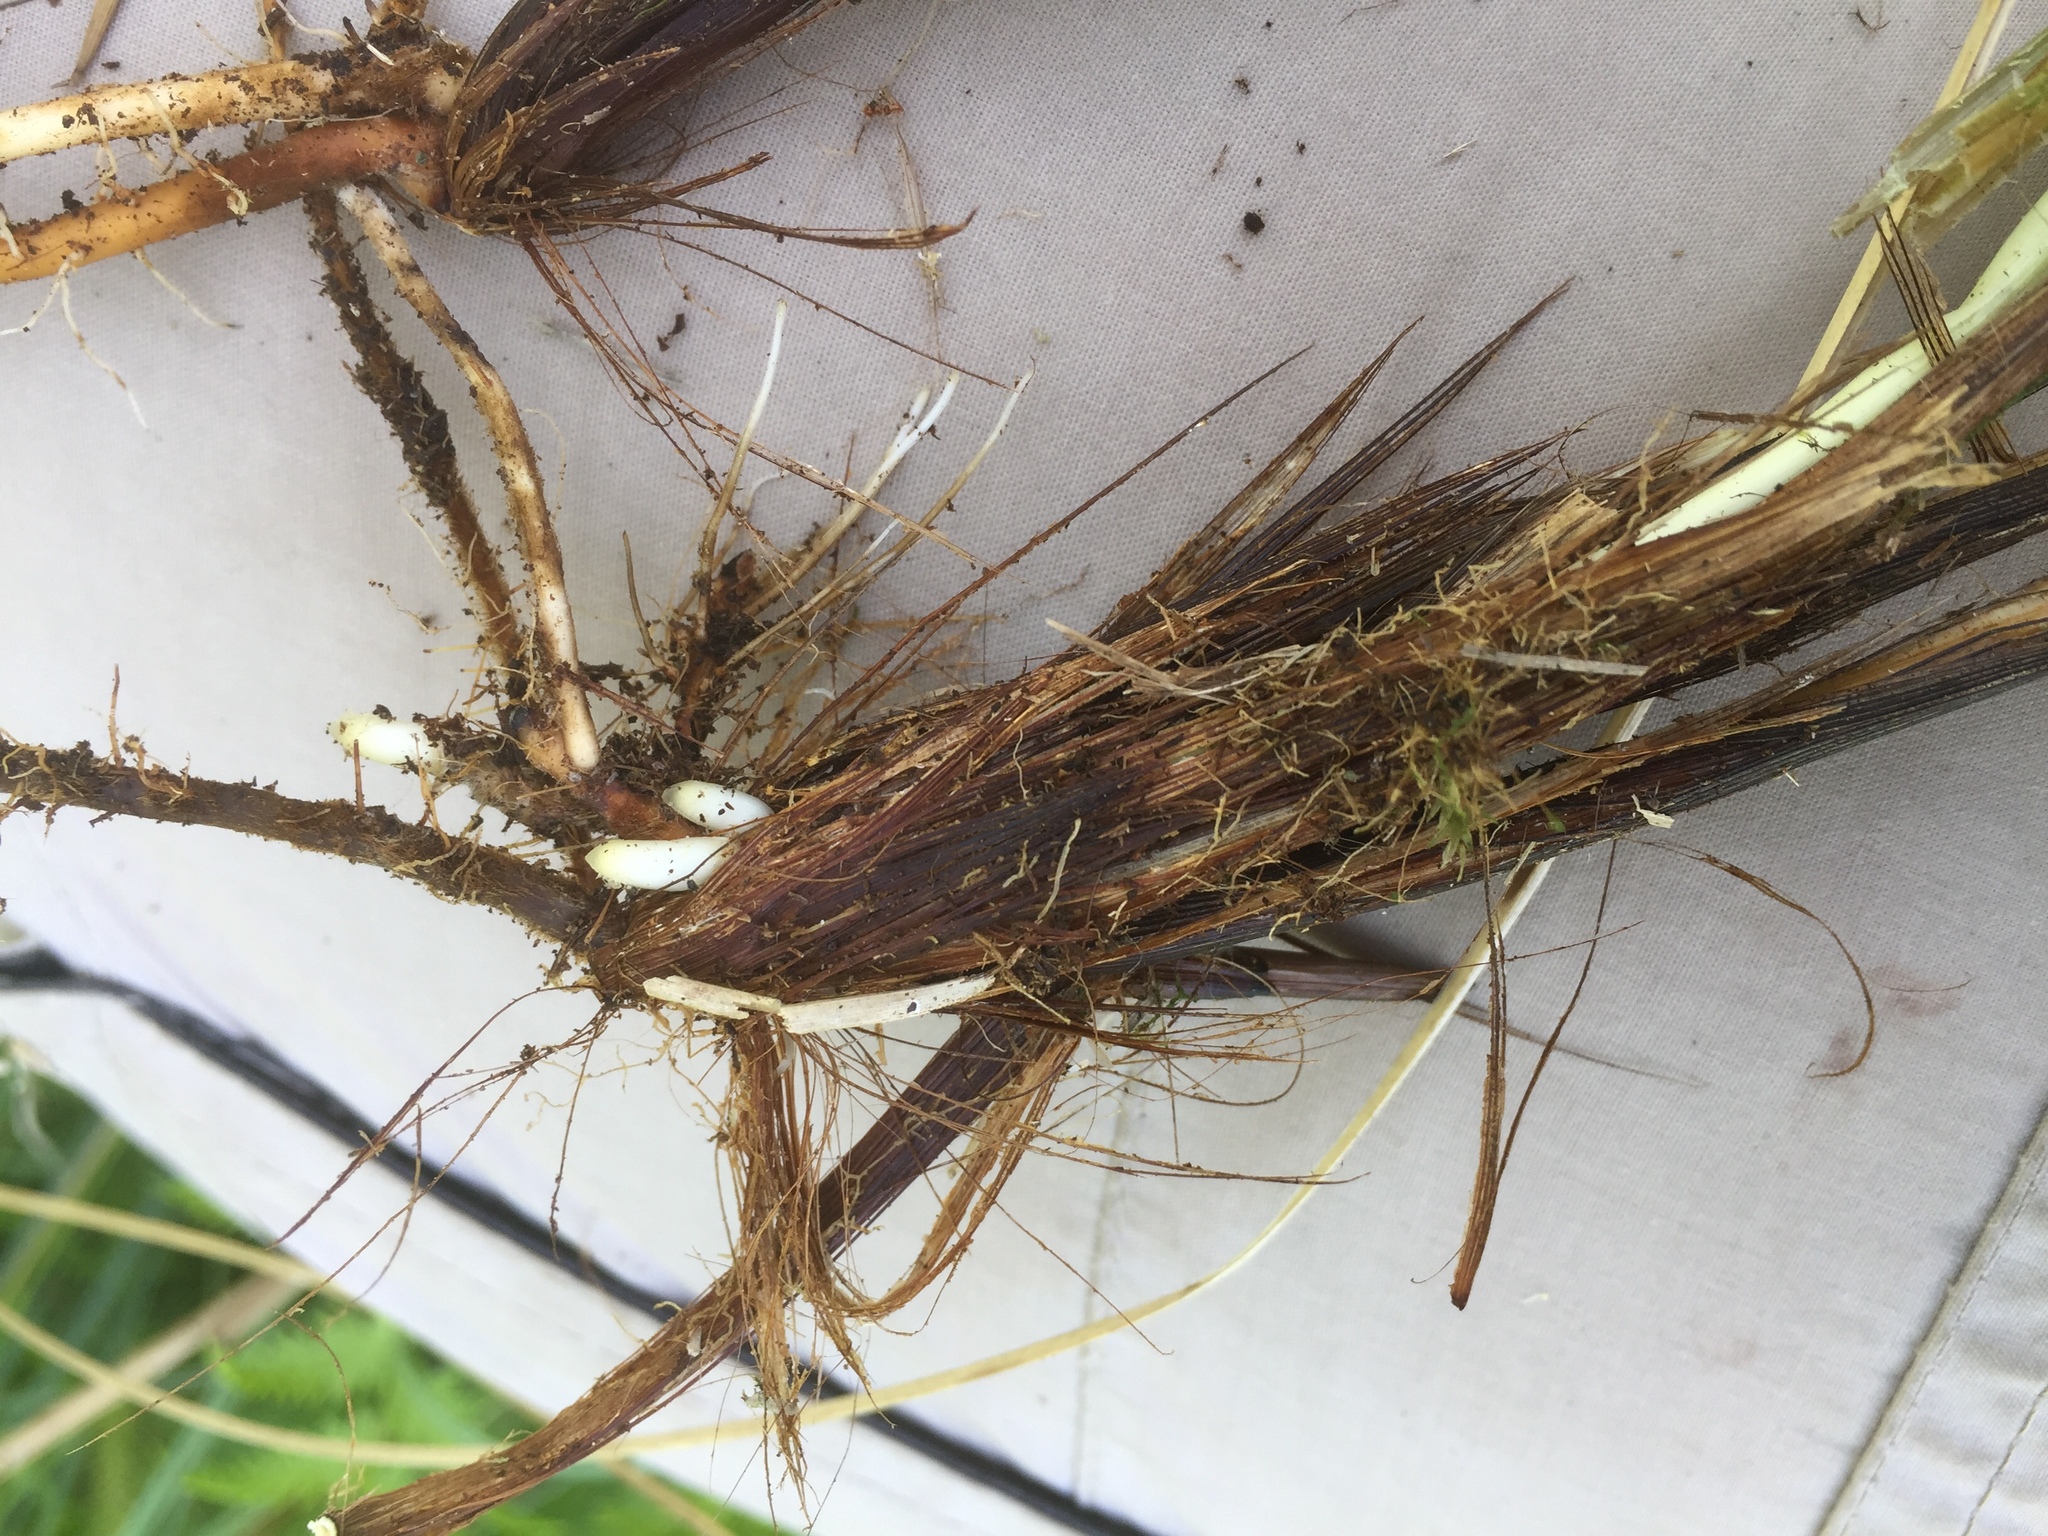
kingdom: Plantae
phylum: Tracheophyta
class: Liliopsida
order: Poales
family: Cyperaceae
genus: Carex
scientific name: Carex appropinquata
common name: Fibrous tussock-sedge
